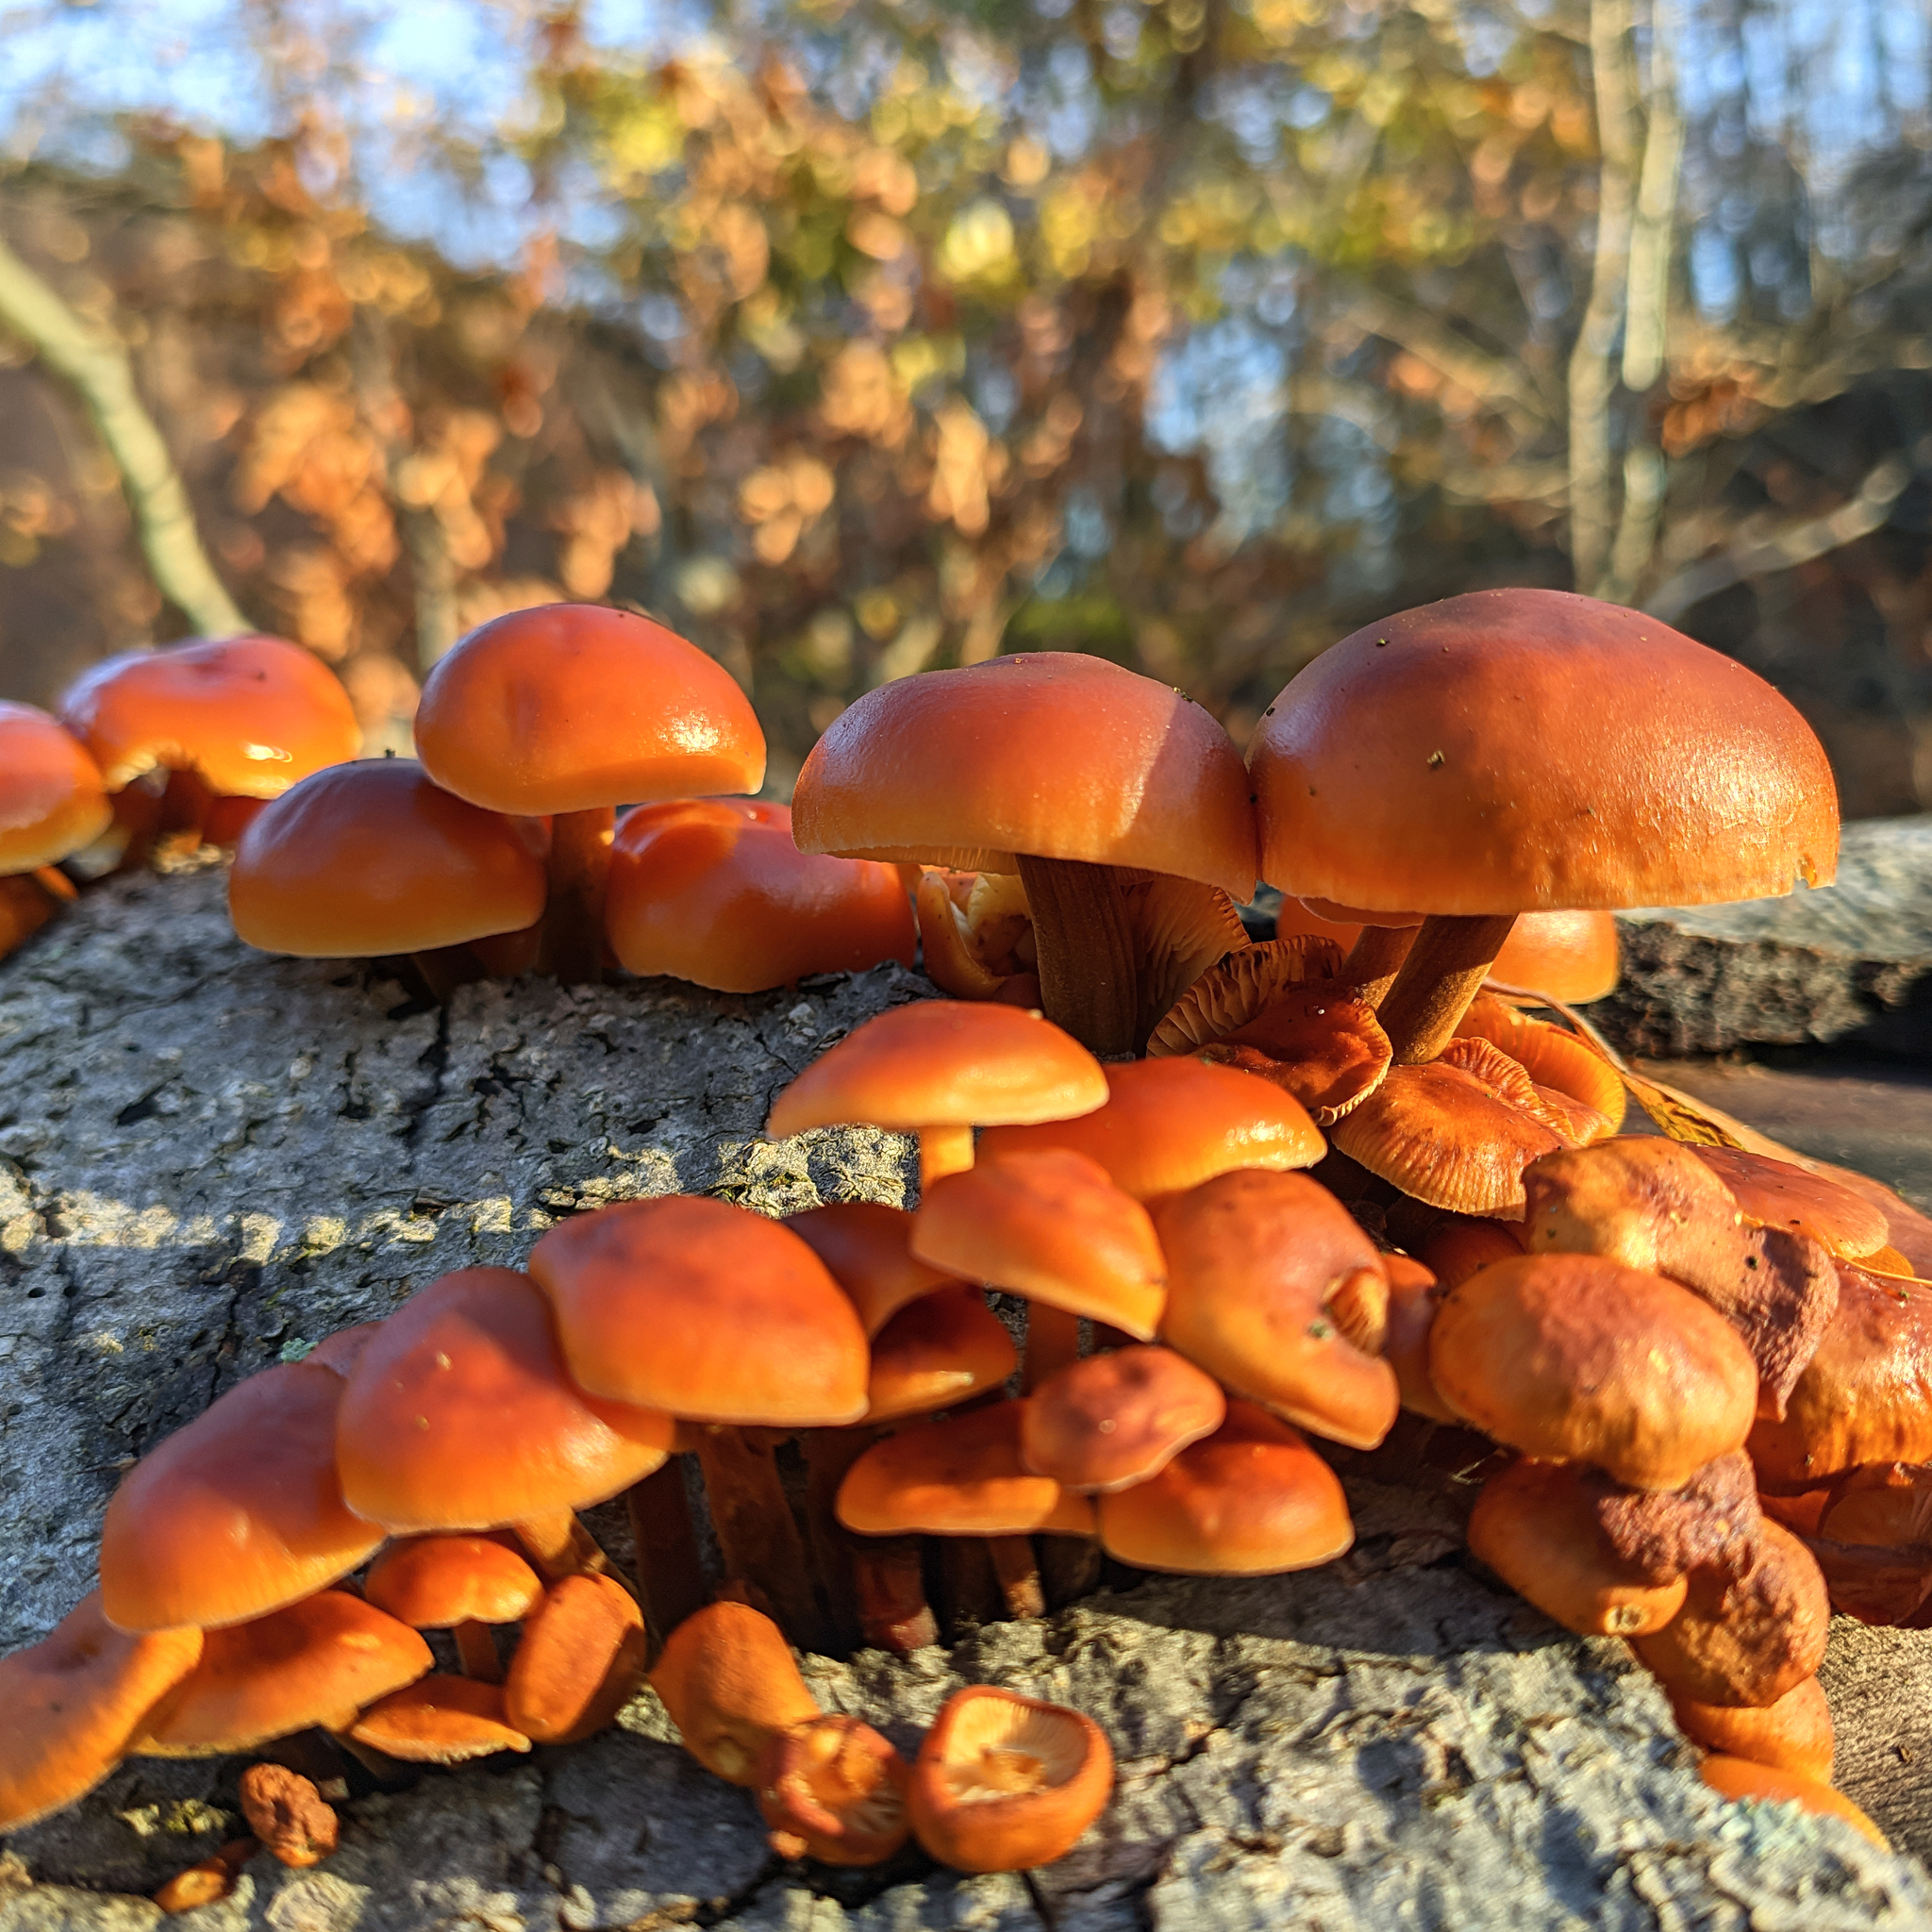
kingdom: Fungi
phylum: Basidiomycota
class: Agaricomycetes
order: Agaricales
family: Physalacriaceae
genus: Flammulina
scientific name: Flammulina
